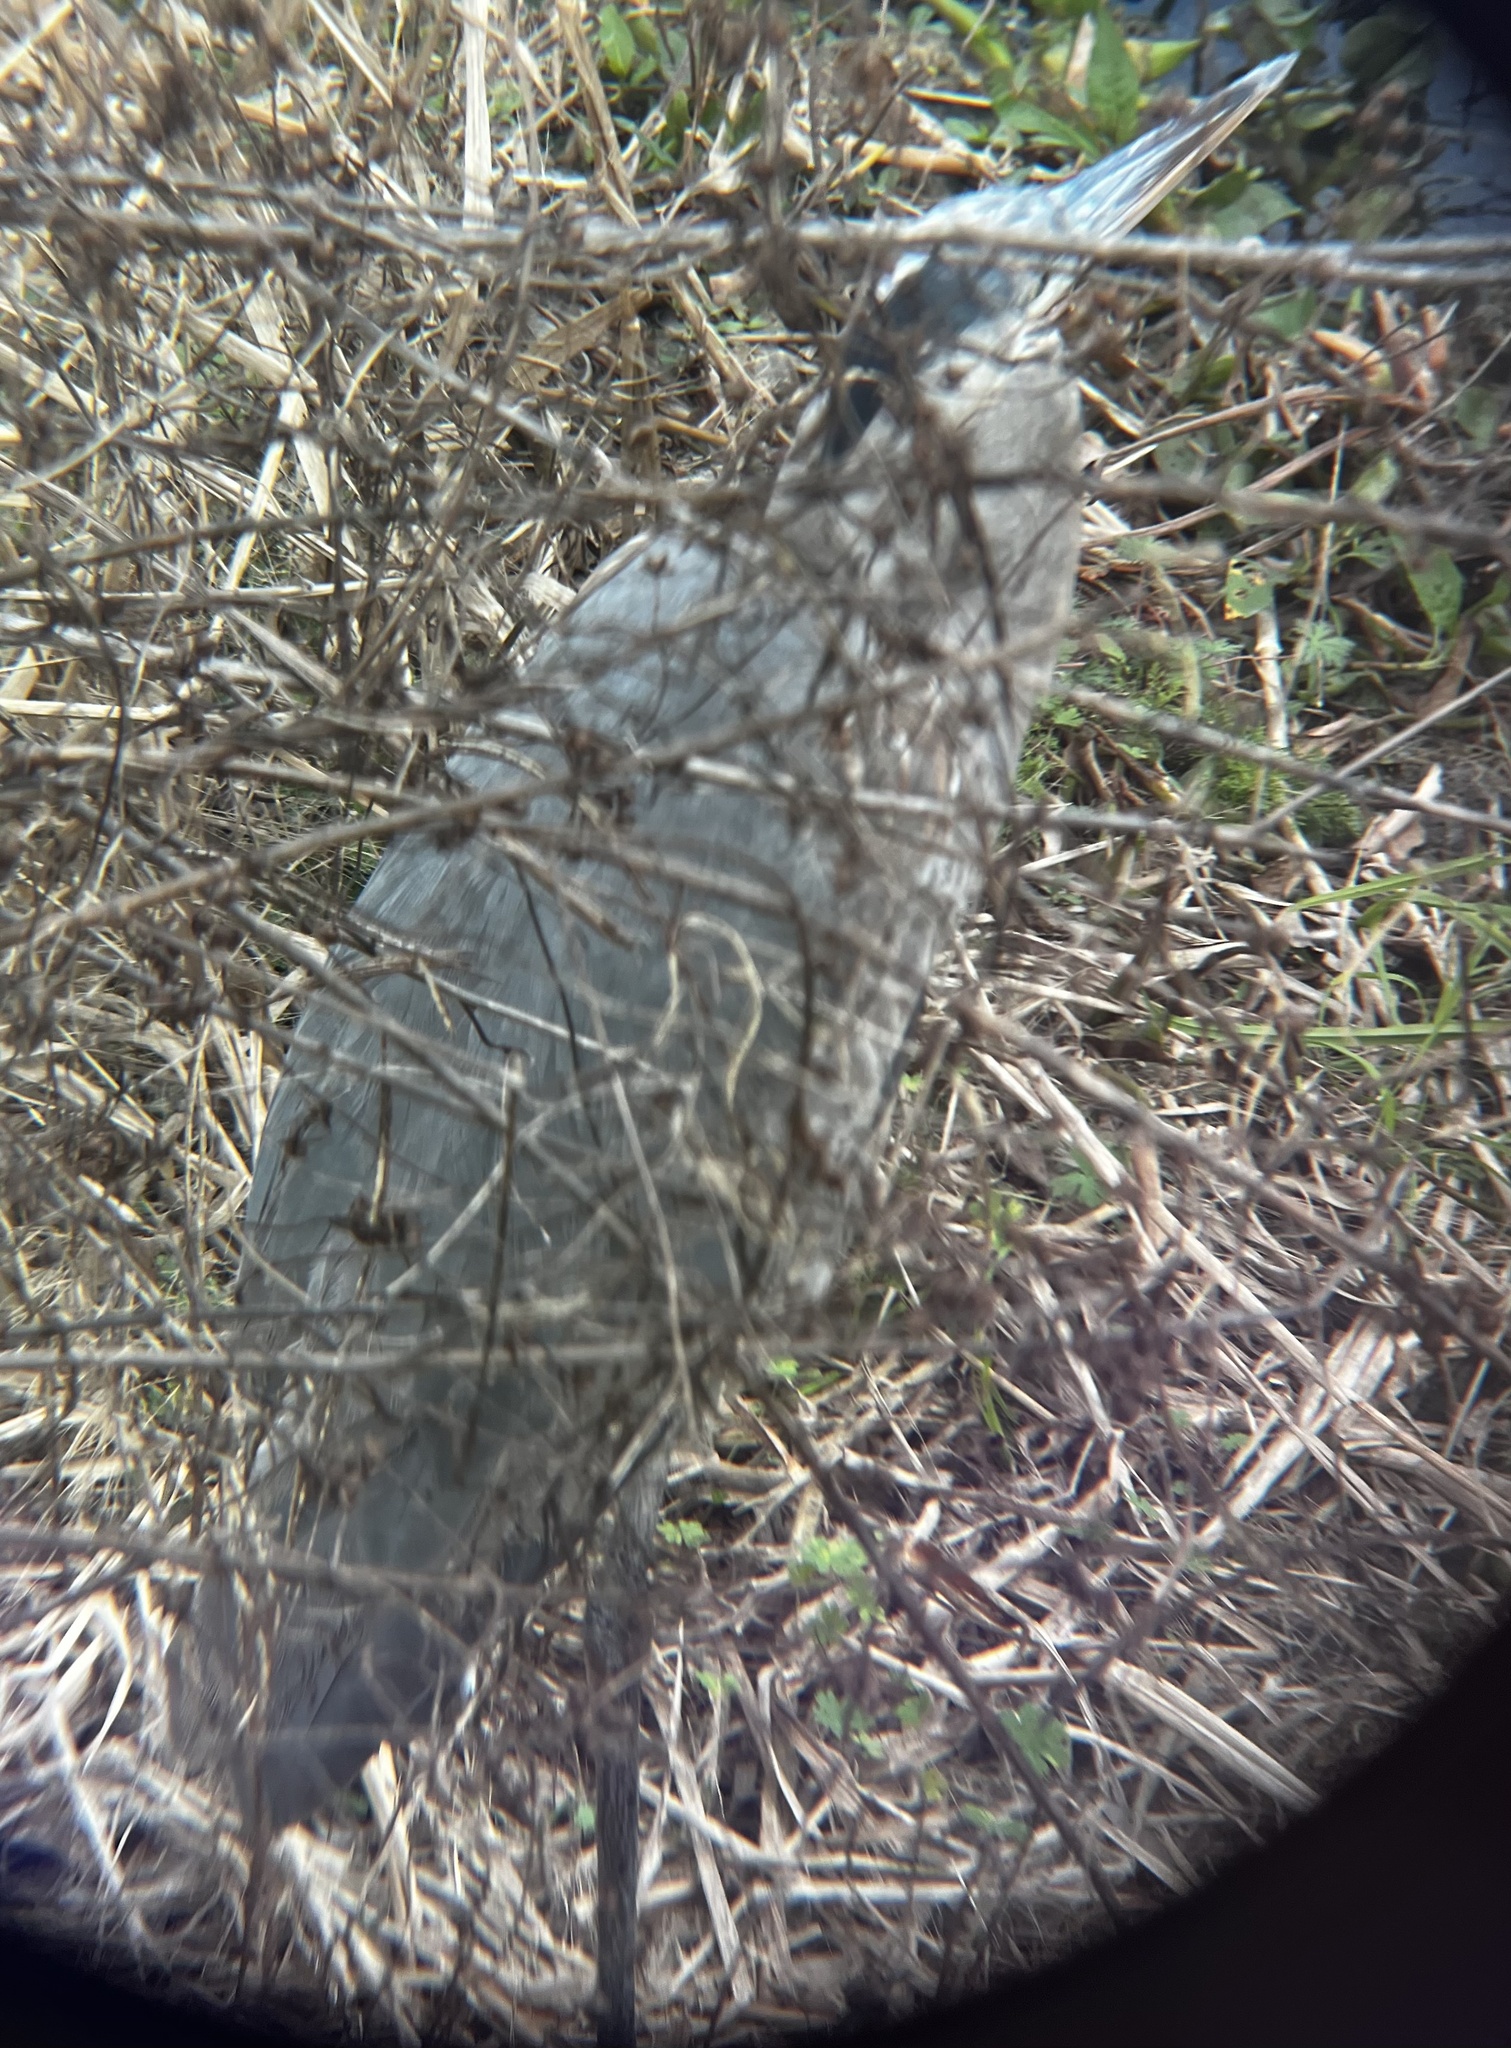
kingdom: Animalia
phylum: Chordata
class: Aves
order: Pelecaniformes
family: Ardeidae
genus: Ardea
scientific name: Ardea herodias
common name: Great blue heron
